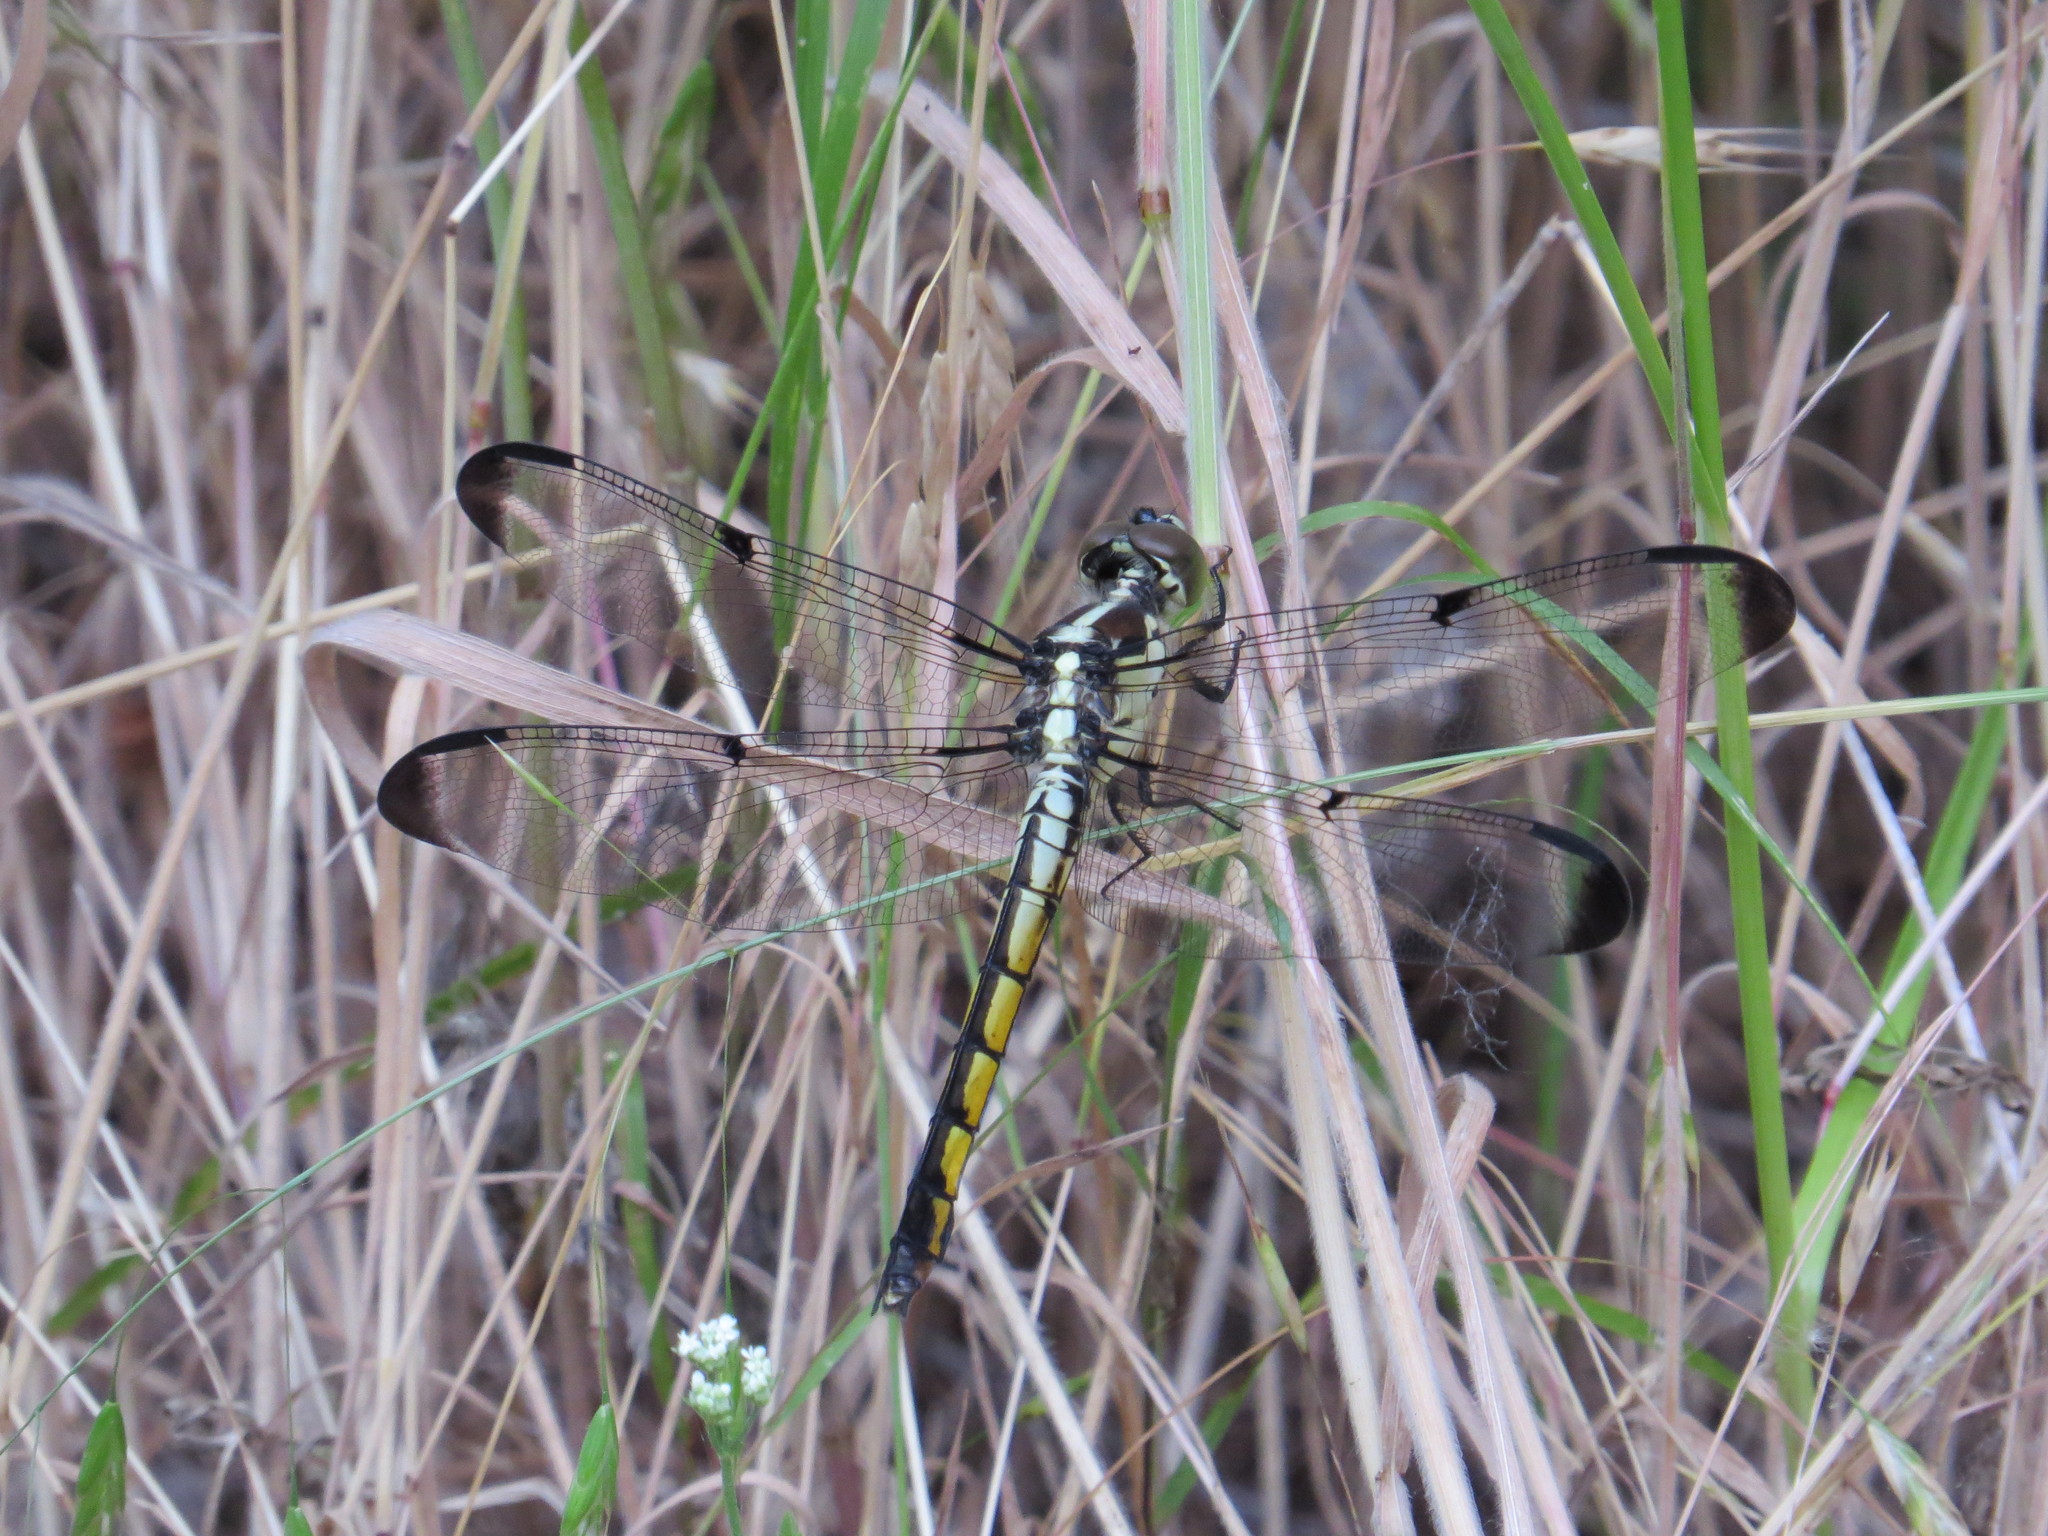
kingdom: Animalia
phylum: Arthropoda
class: Insecta
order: Odonata
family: Libellulidae
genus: Libellula
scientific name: Libellula vibrans
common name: Great blue skimmer
